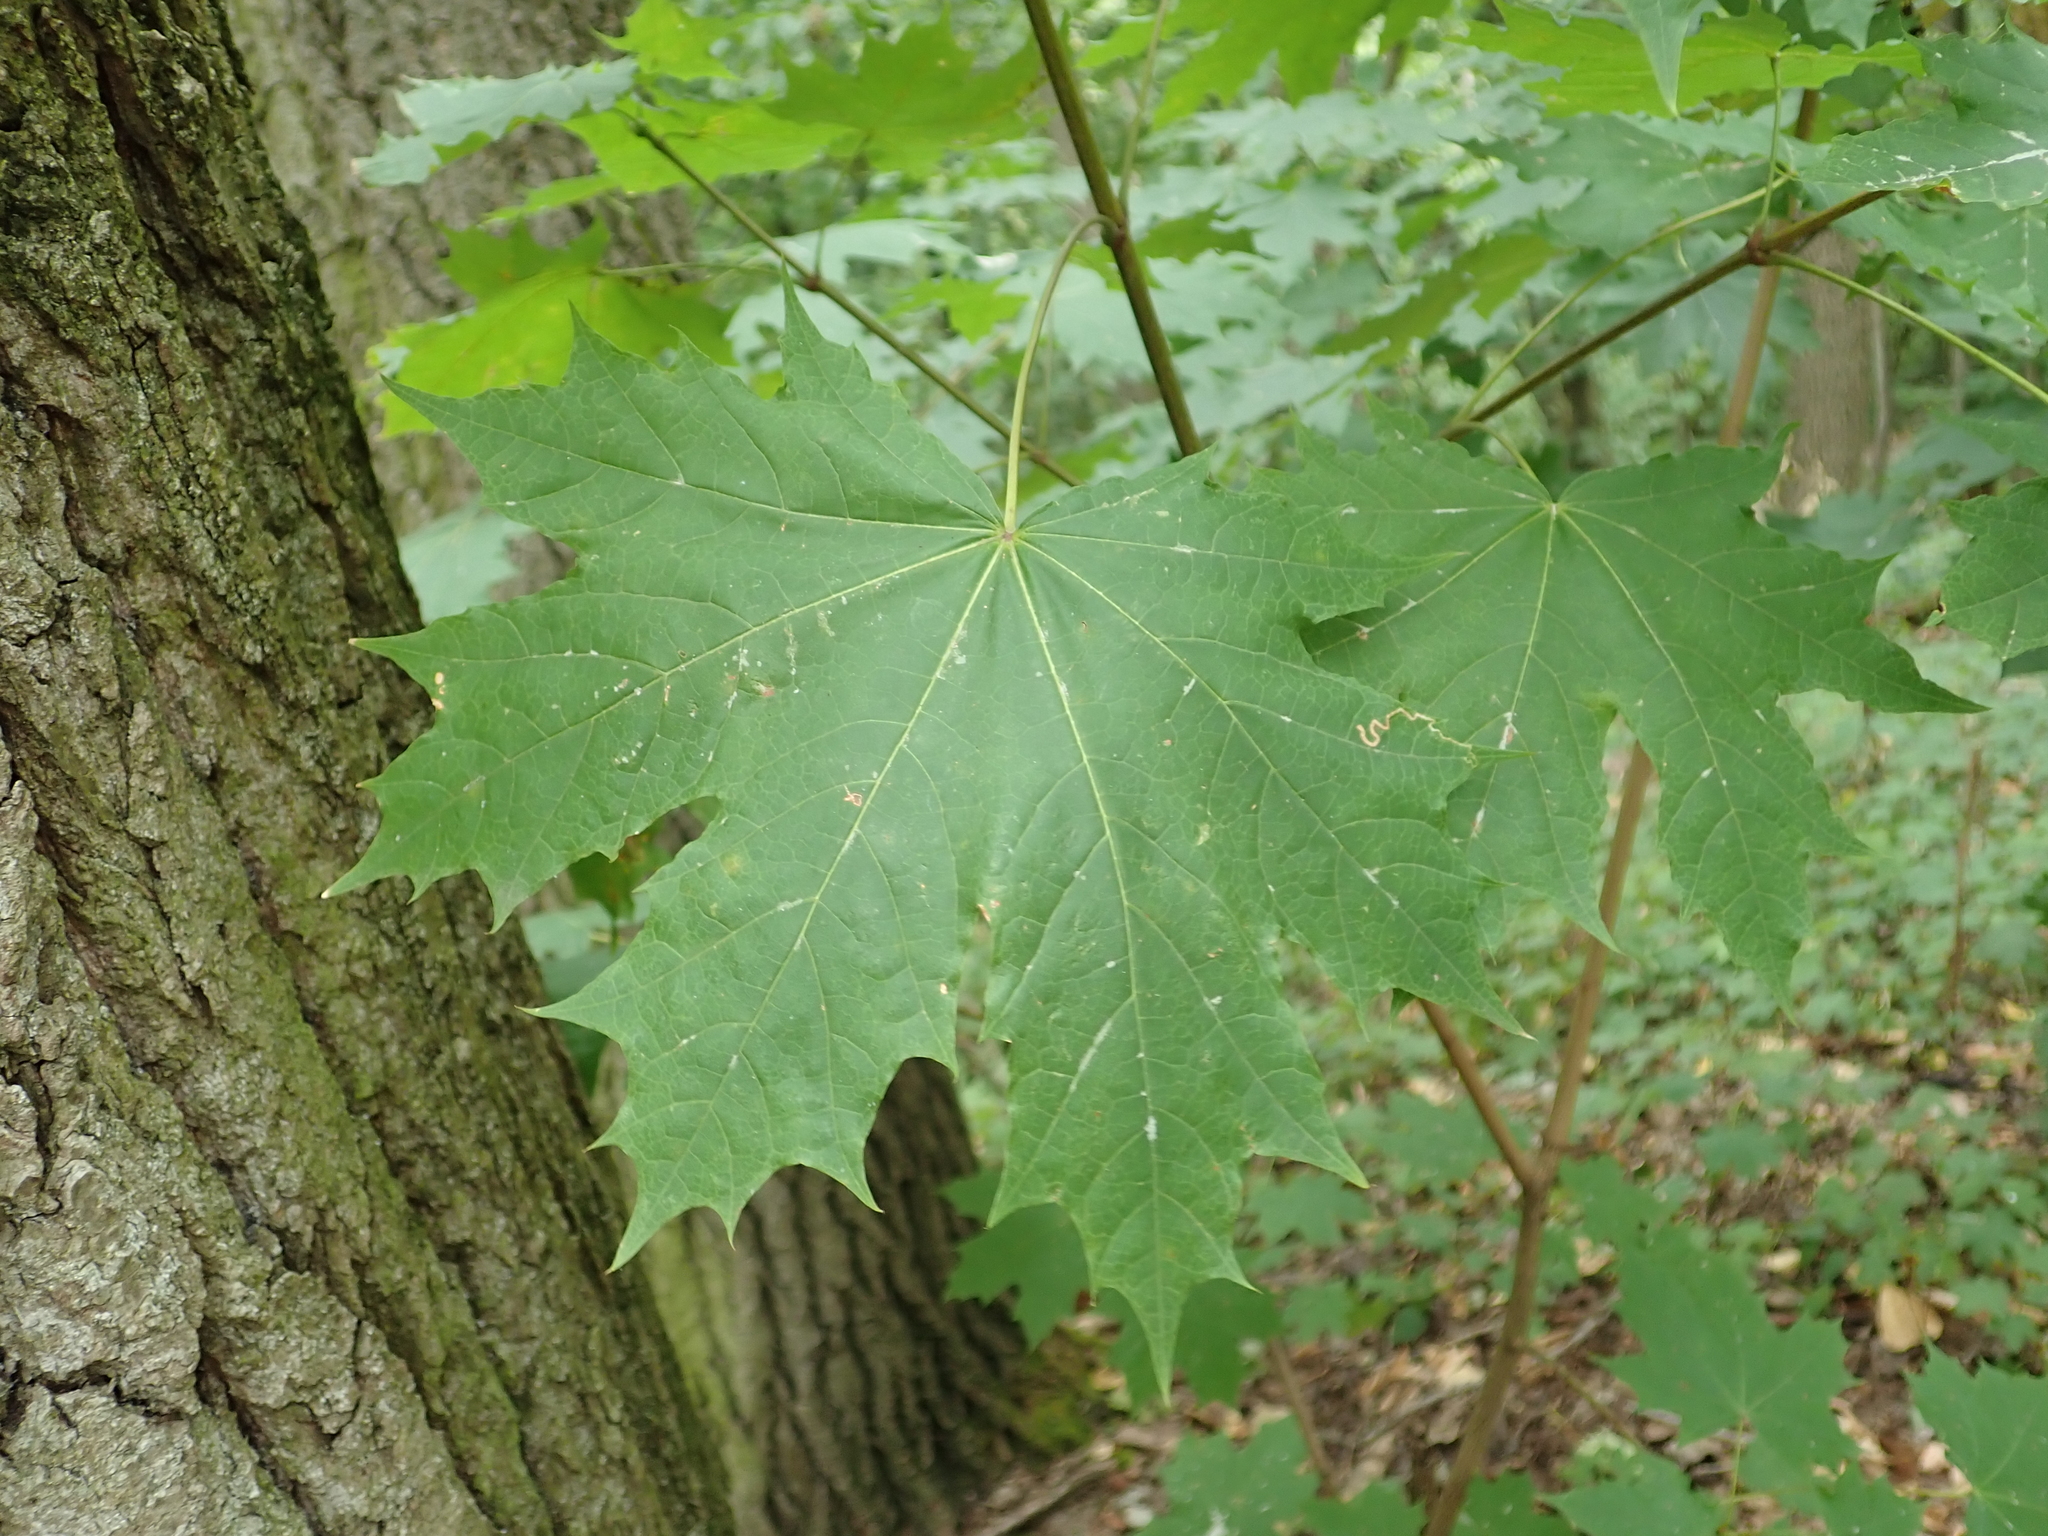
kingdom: Plantae
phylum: Tracheophyta
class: Magnoliopsida
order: Sapindales
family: Sapindaceae
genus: Acer
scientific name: Acer platanoides
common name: Norway maple
